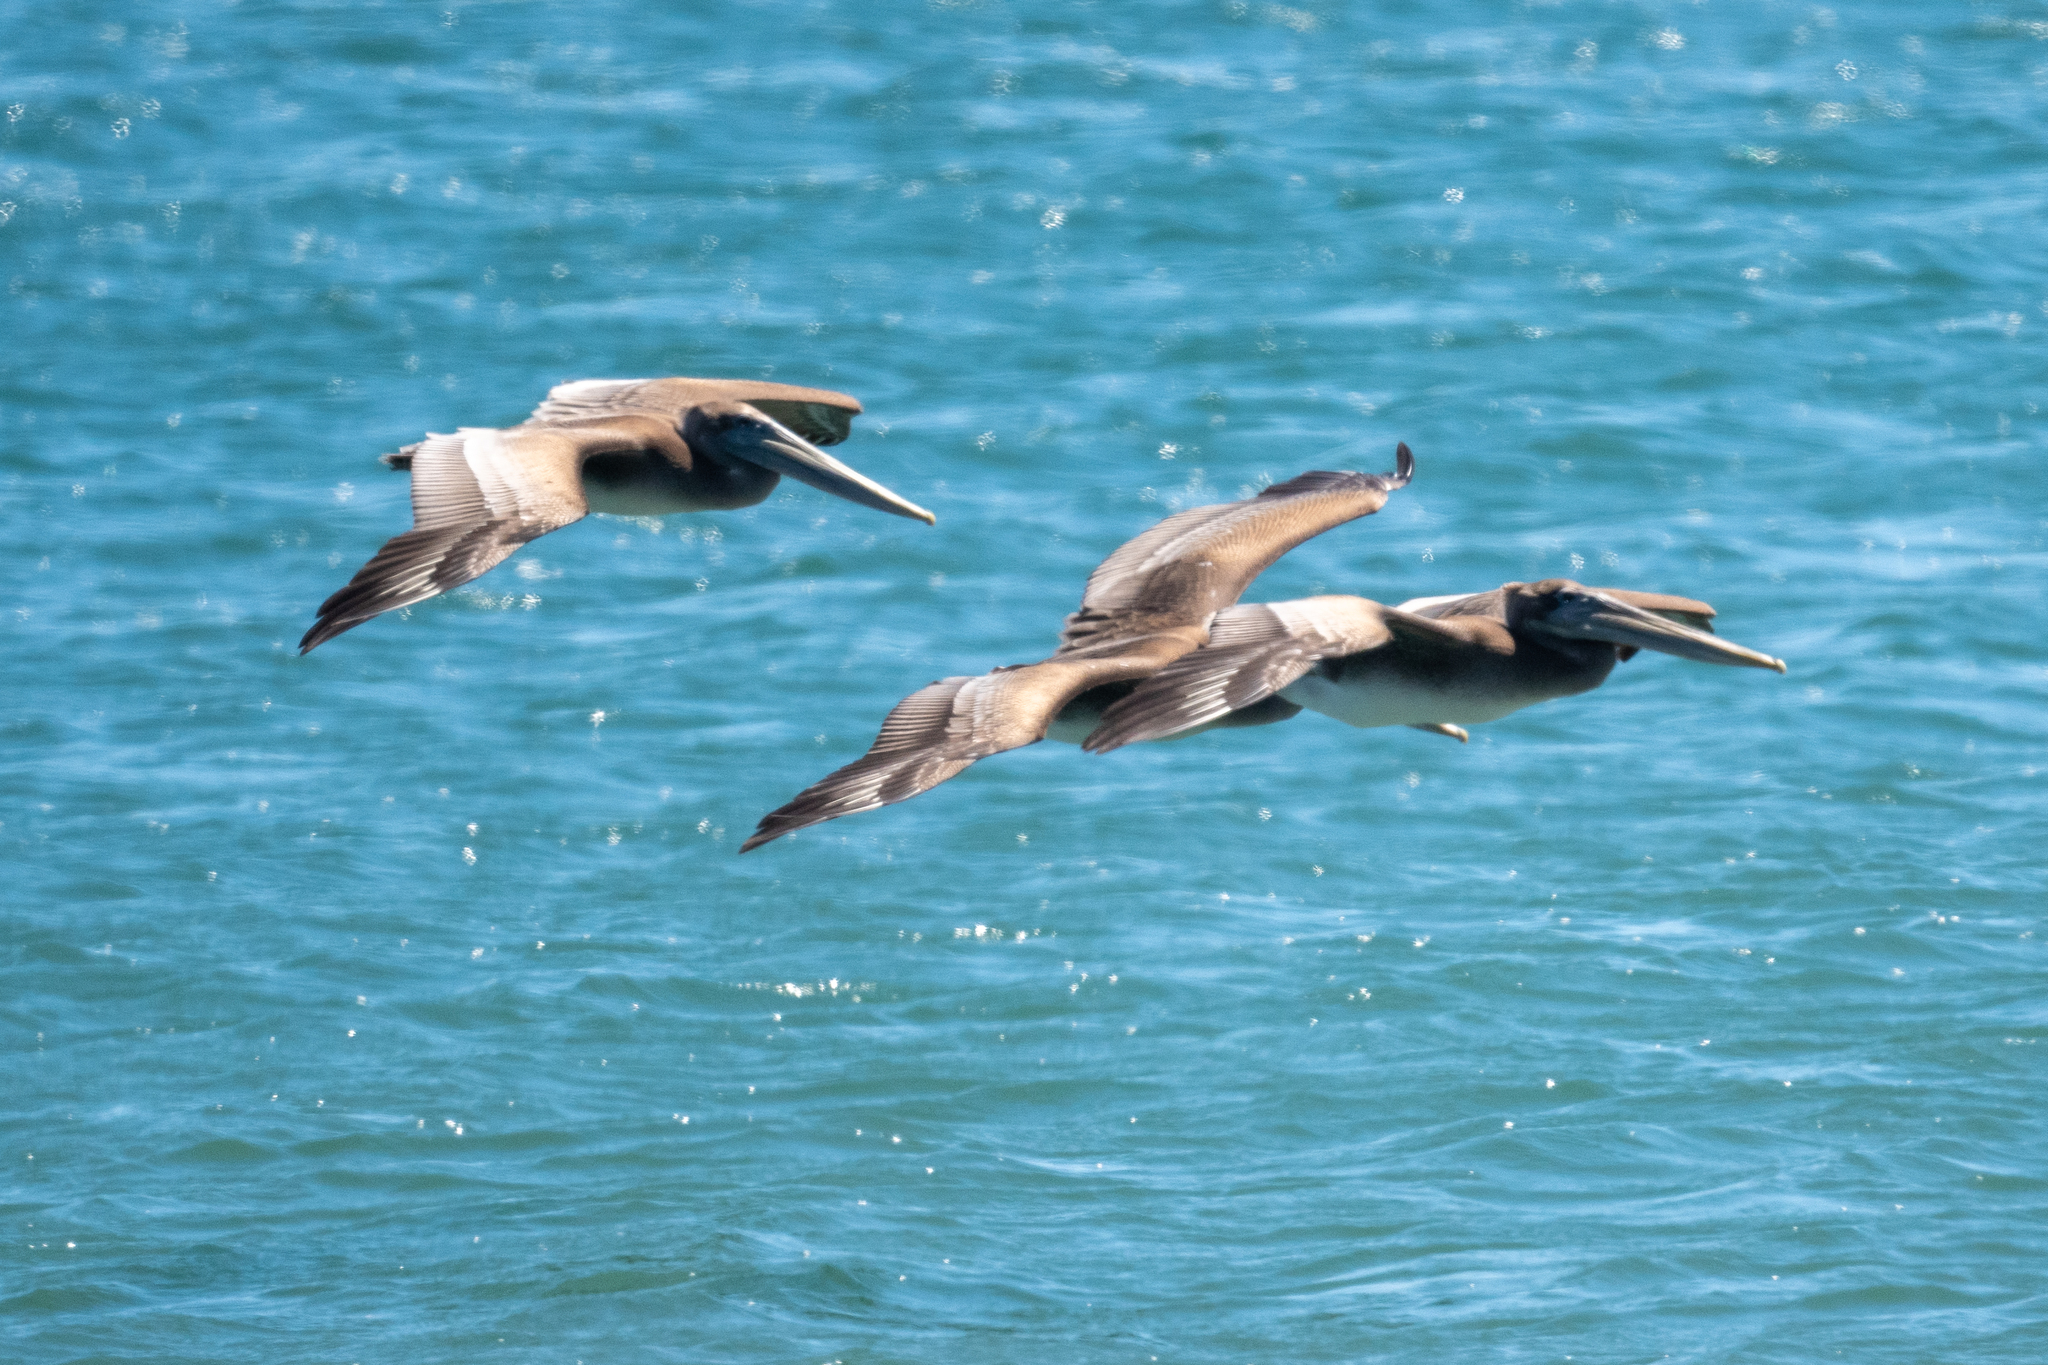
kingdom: Animalia
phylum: Chordata
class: Aves
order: Pelecaniformes
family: Pelecanidae
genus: Pelecanus
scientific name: Pelecanus occidentalis
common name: Brown pelican
